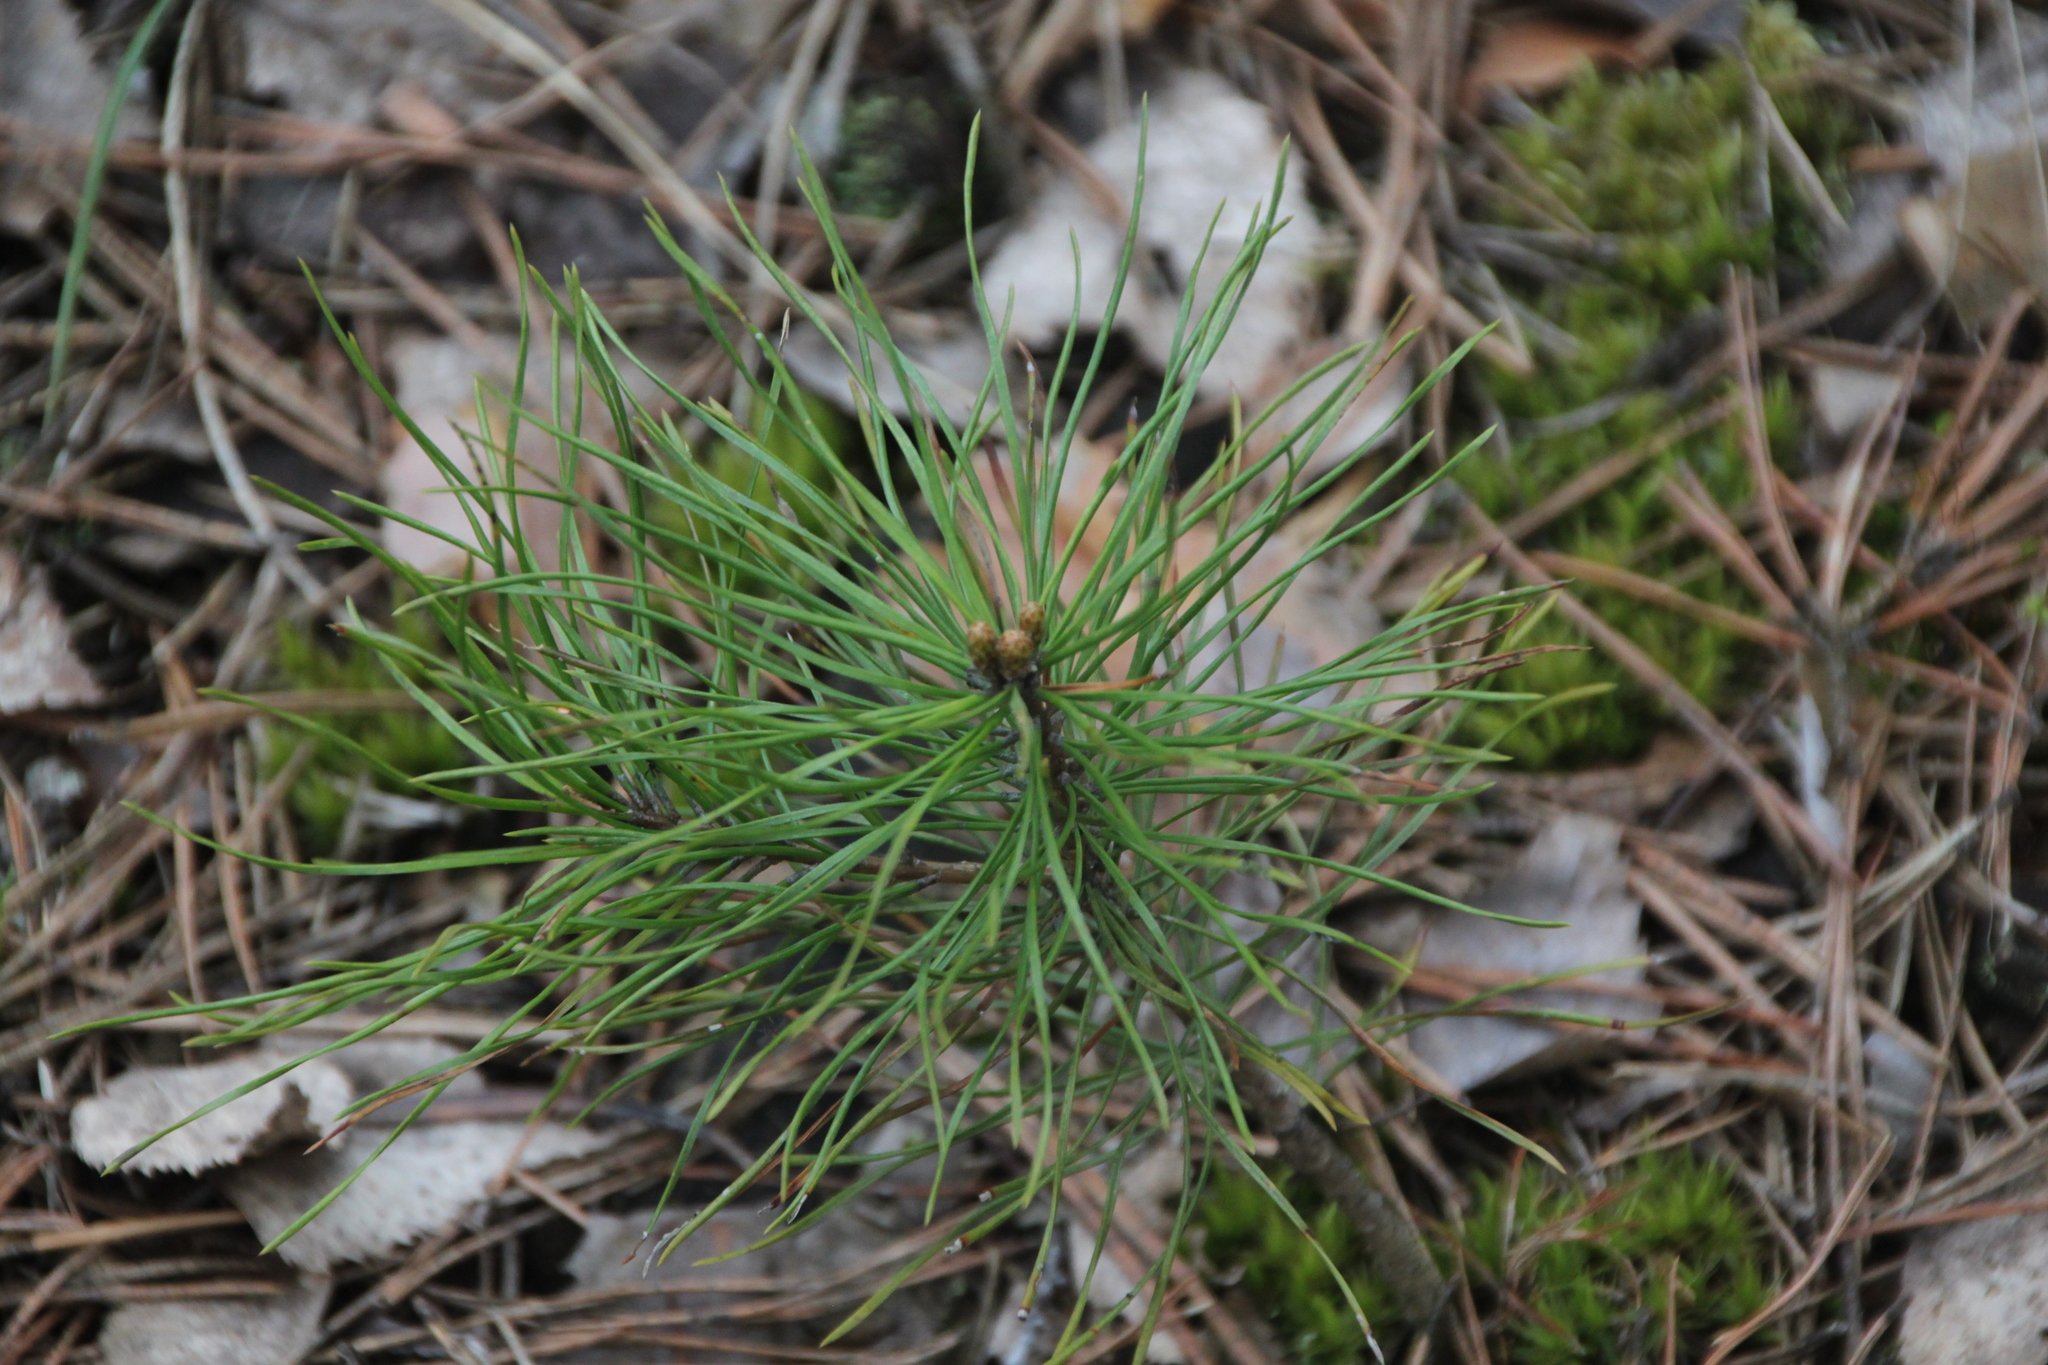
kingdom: Plantae
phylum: Tracheophyta
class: Pinopsida
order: Pinales
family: Pinaceae
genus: Pinus
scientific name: Pinus sylvestris
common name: Scots pine
